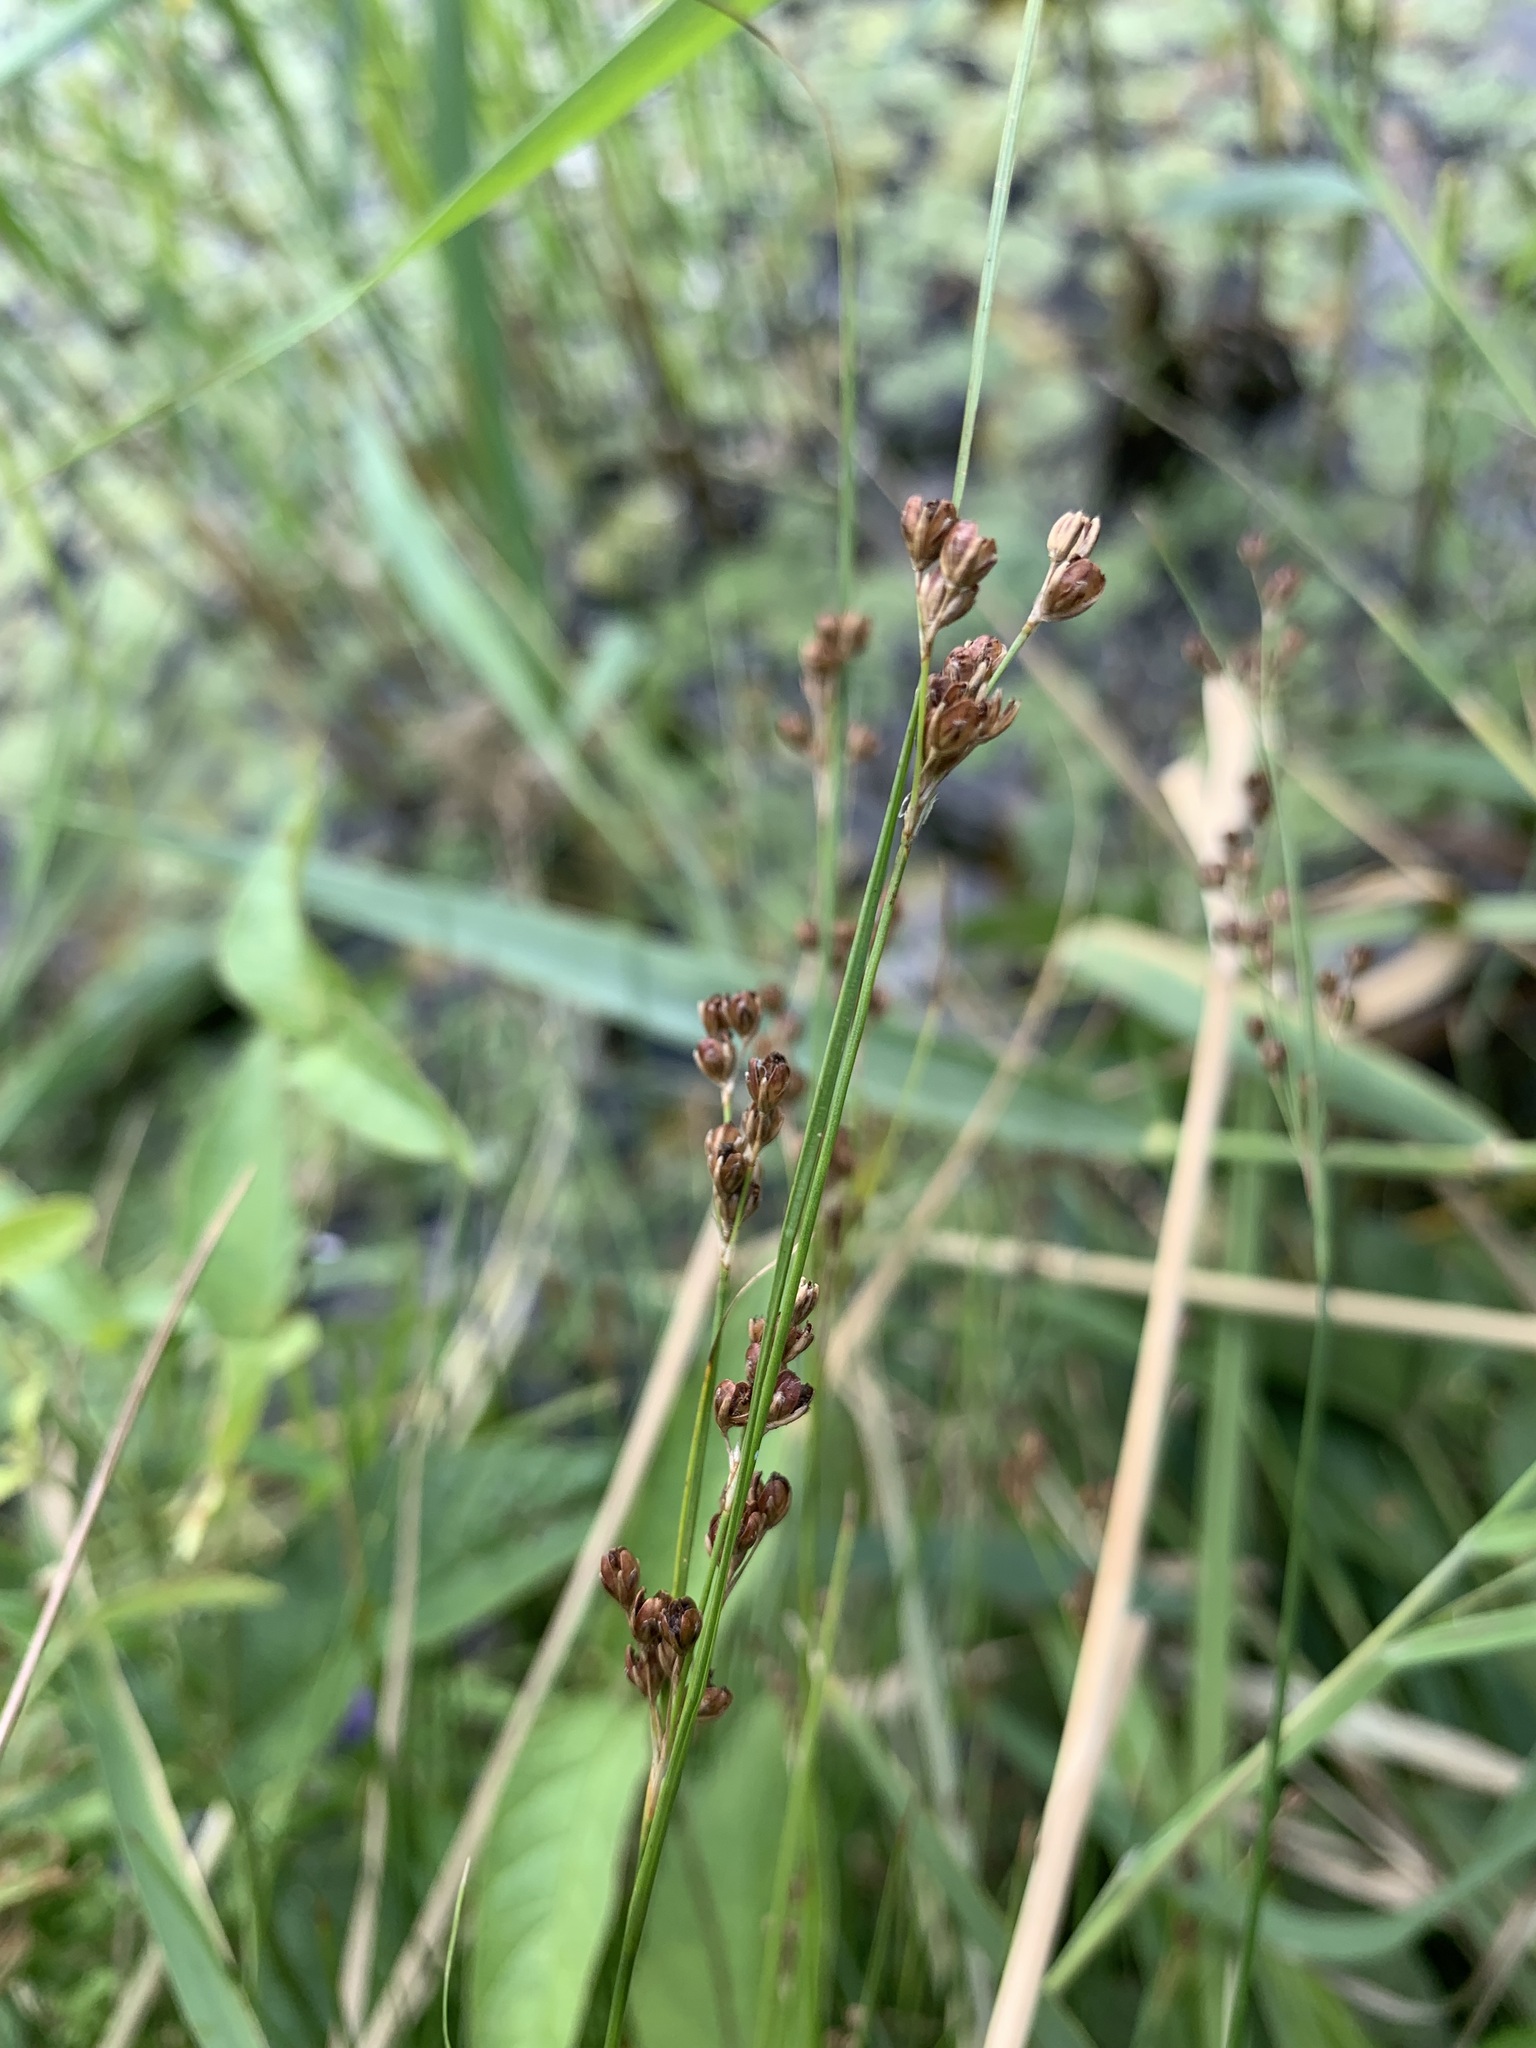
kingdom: Plantae
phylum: Tracheophyta
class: Liliopsida
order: Poales
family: Juncaceae
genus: Juncus
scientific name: Juncus compressus
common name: Round-fruited rush
